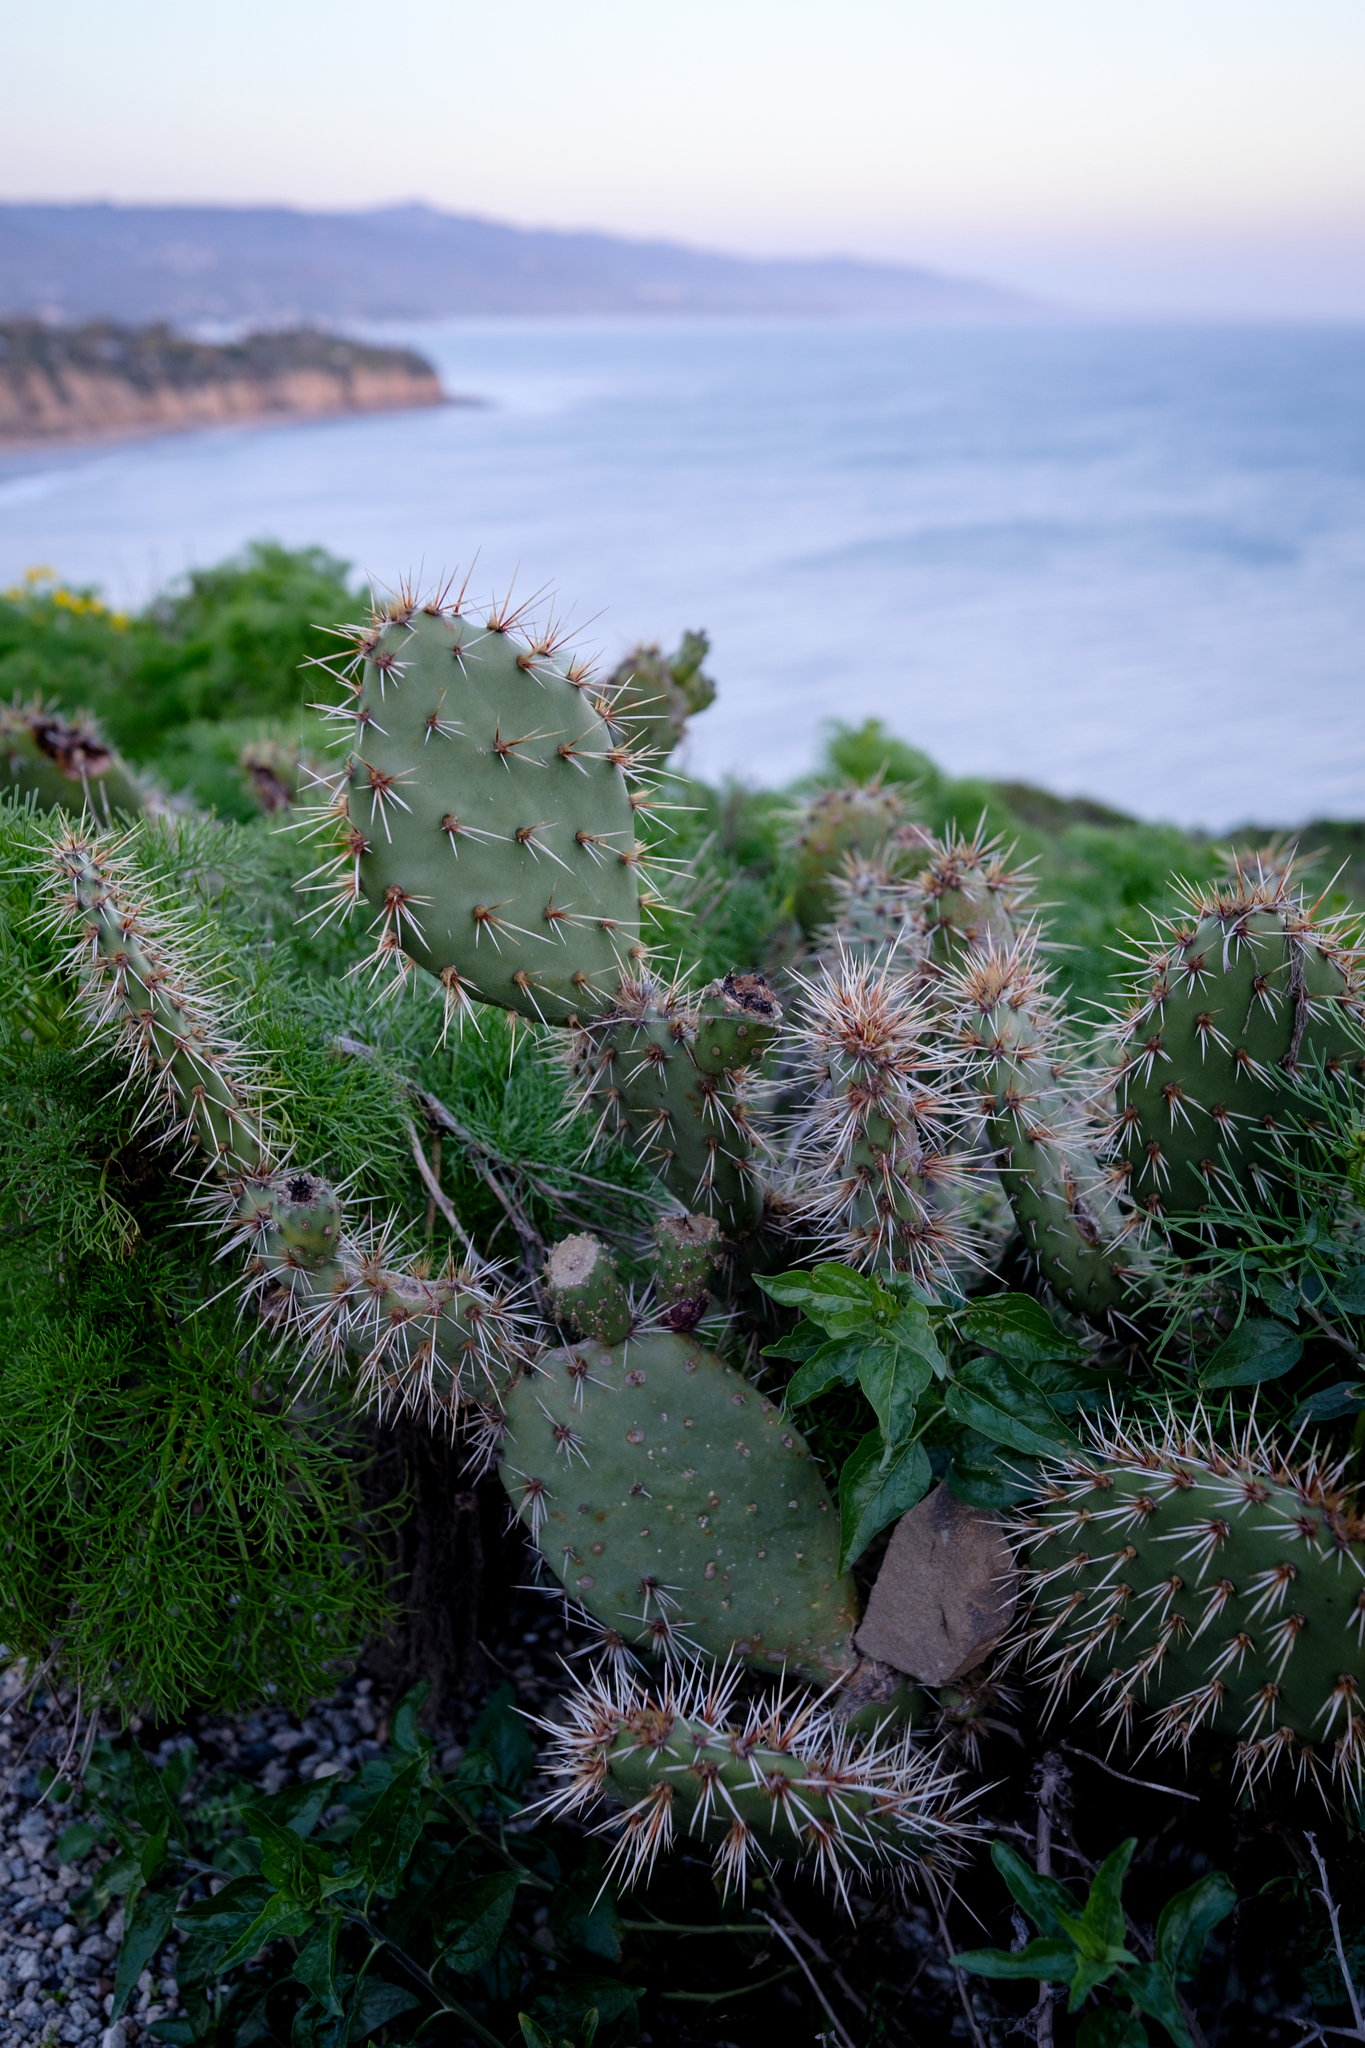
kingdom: Plantae
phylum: Tracheophyta
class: Magnoliopsida
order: Caryophyllales
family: Cactaceae
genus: Opuntia
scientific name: Opuntia littoralis
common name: Coastal prickly-pear
